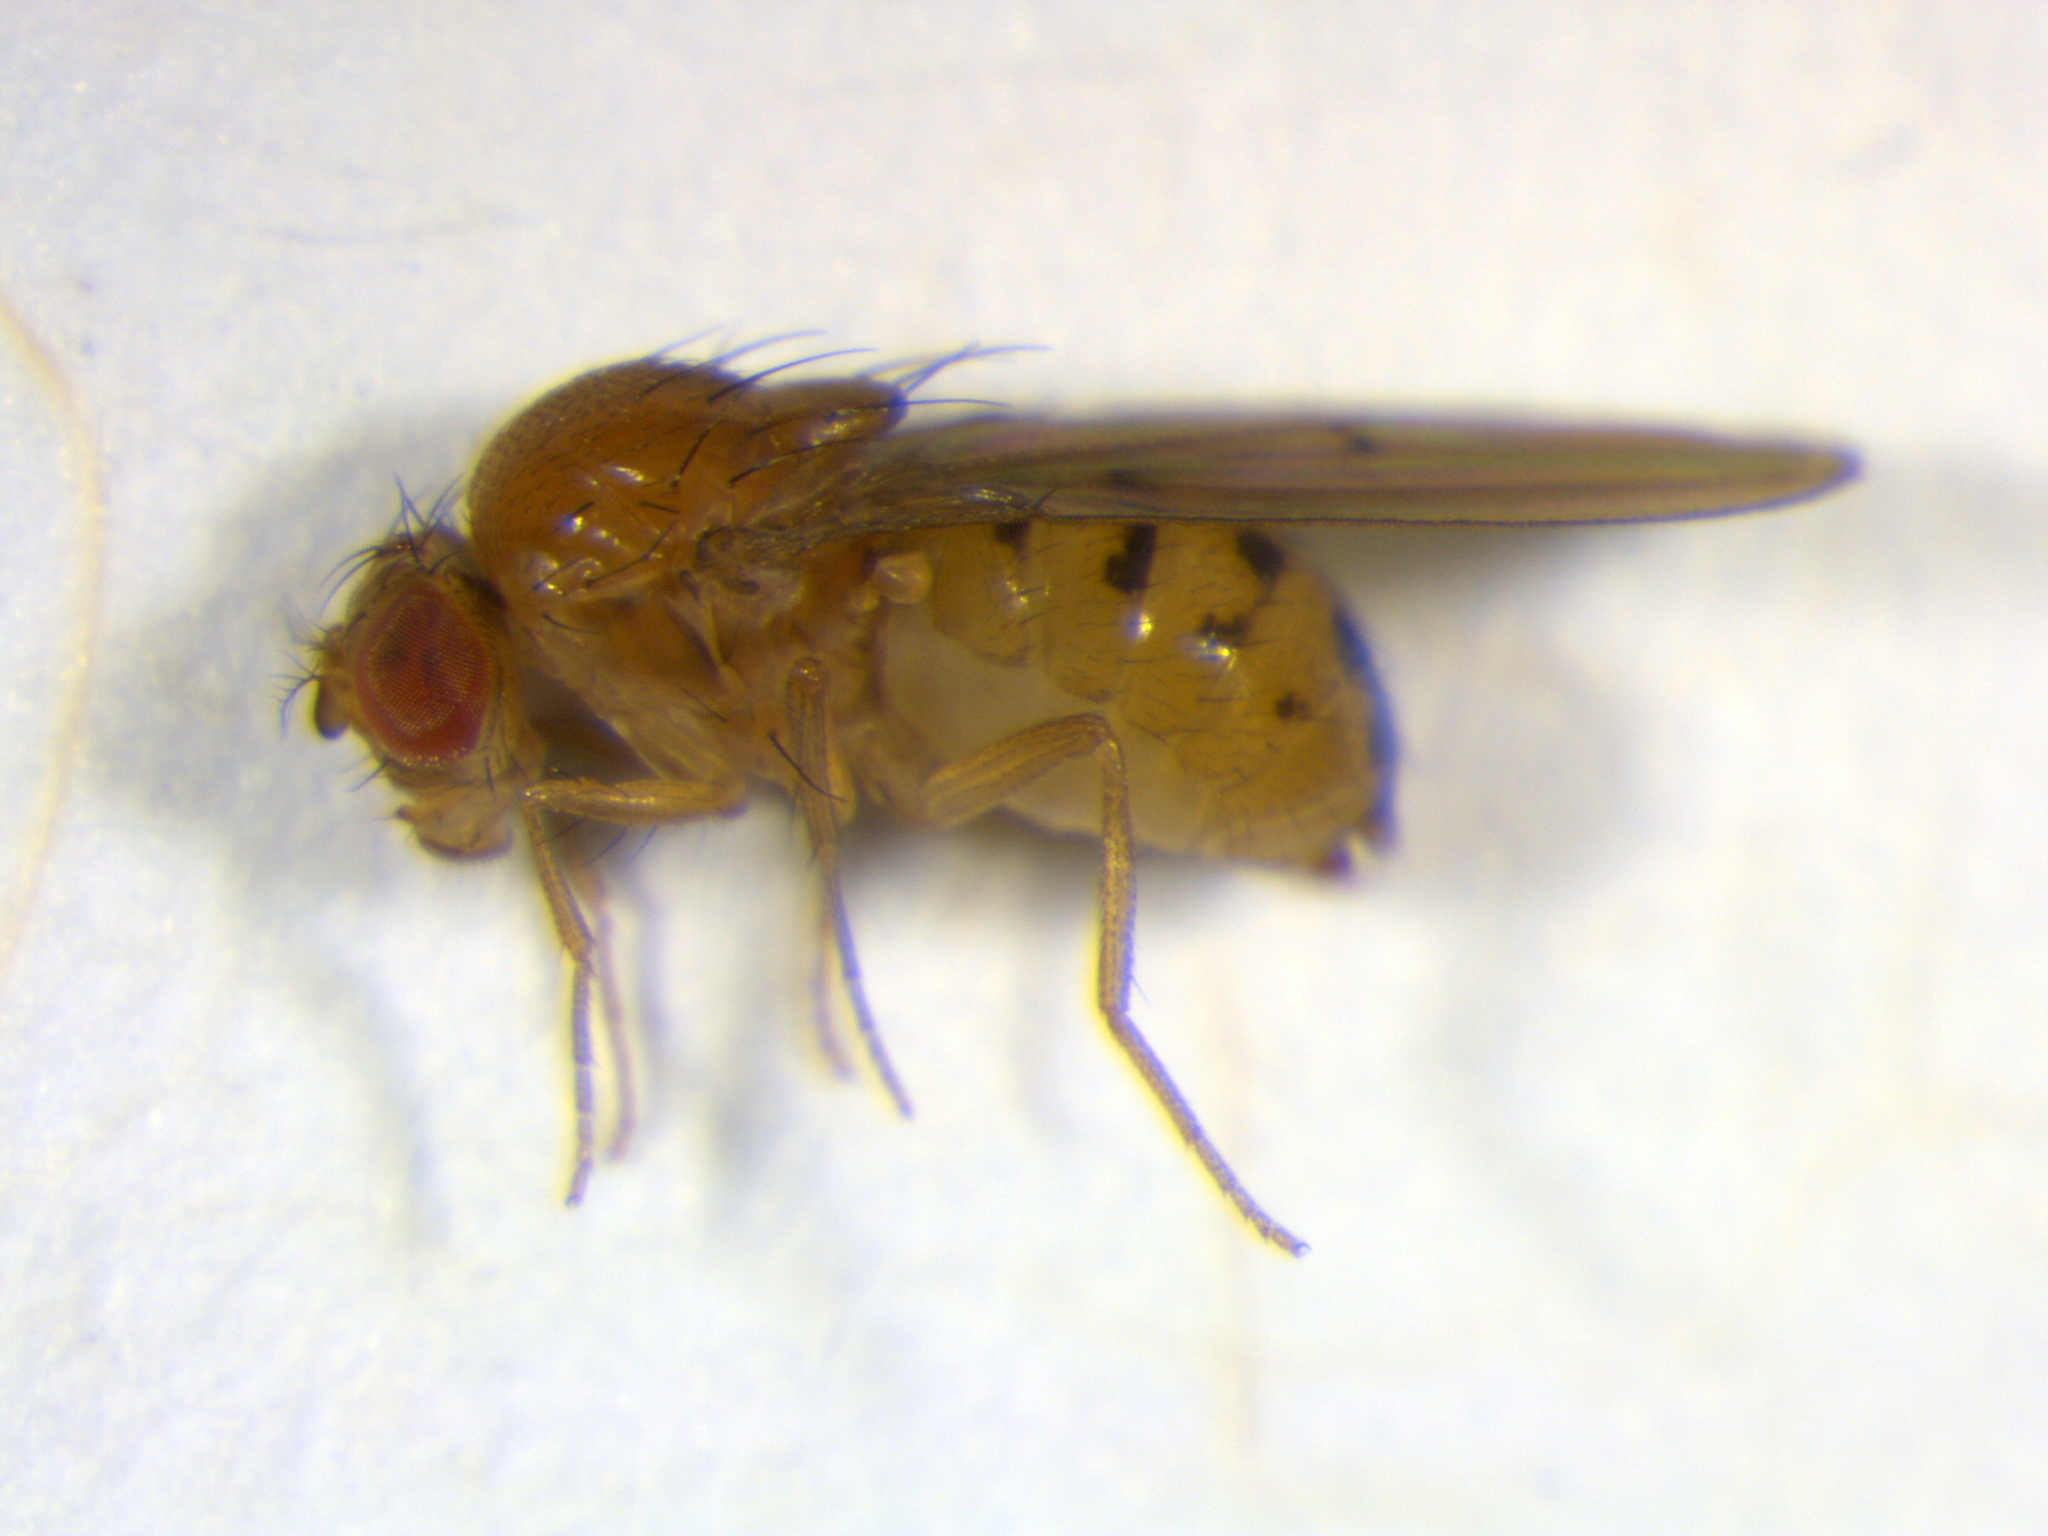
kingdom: Animalia
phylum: Arthropoda
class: Insecta
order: Diptera
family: Drosophilidae
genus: Drosophila
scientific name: Drosophila phalerata
